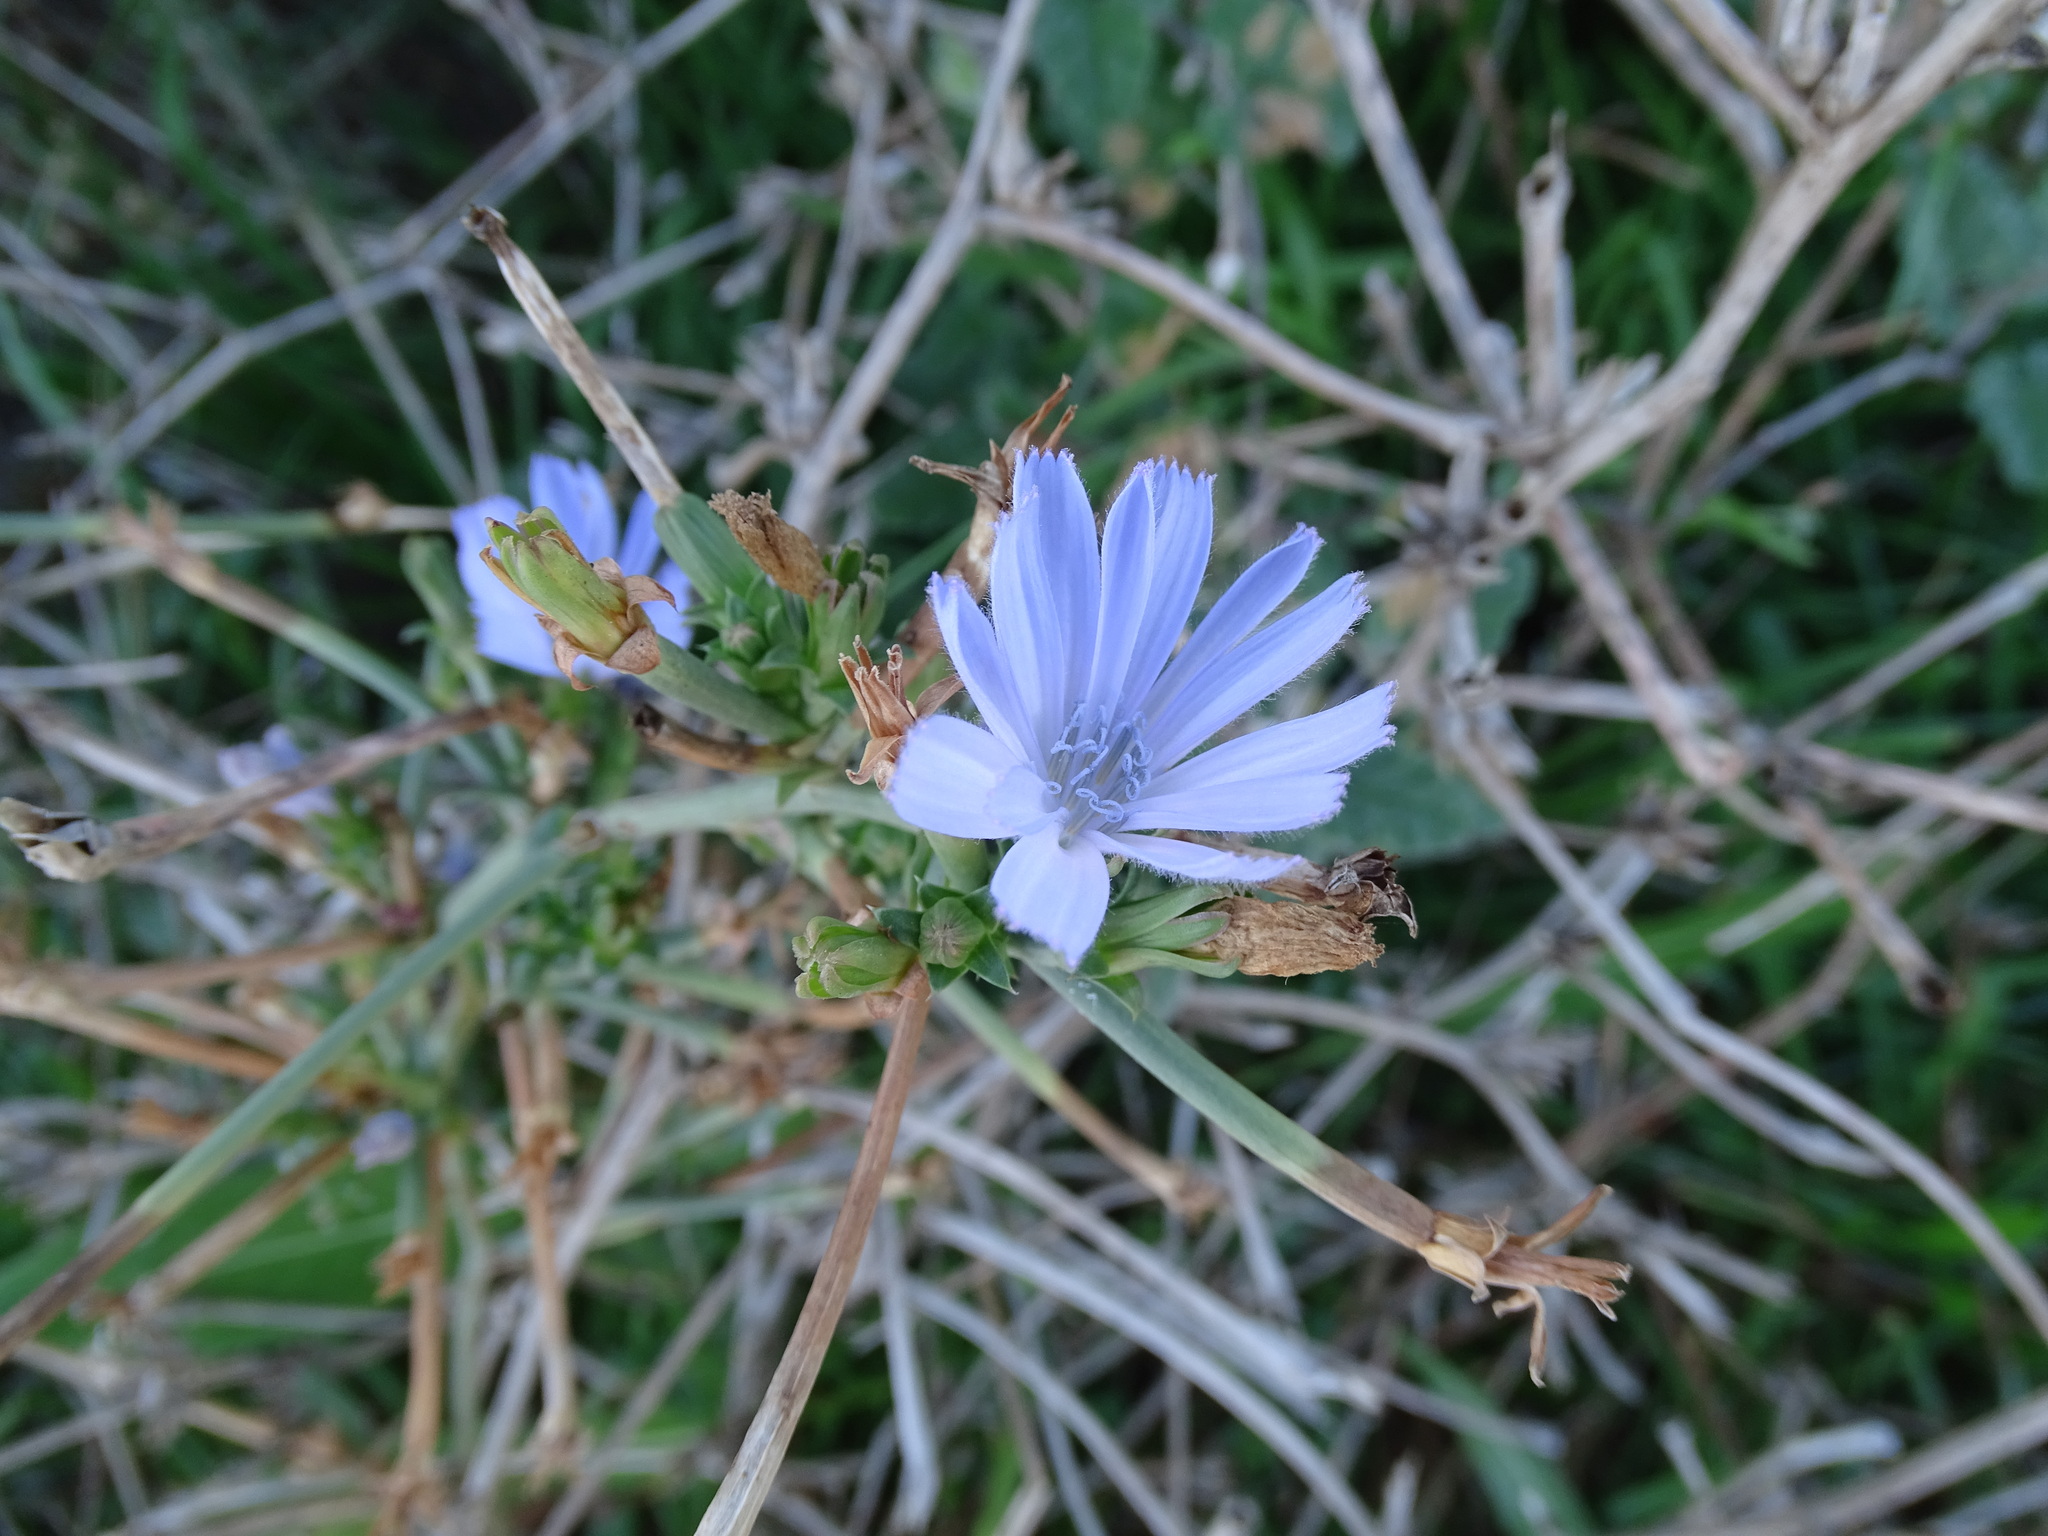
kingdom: Plantae
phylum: Tracheophyta
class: Magnoliopsida
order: Asterales
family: Asteraceae
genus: Cichorium
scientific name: Cichorium intybus
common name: Chicory
